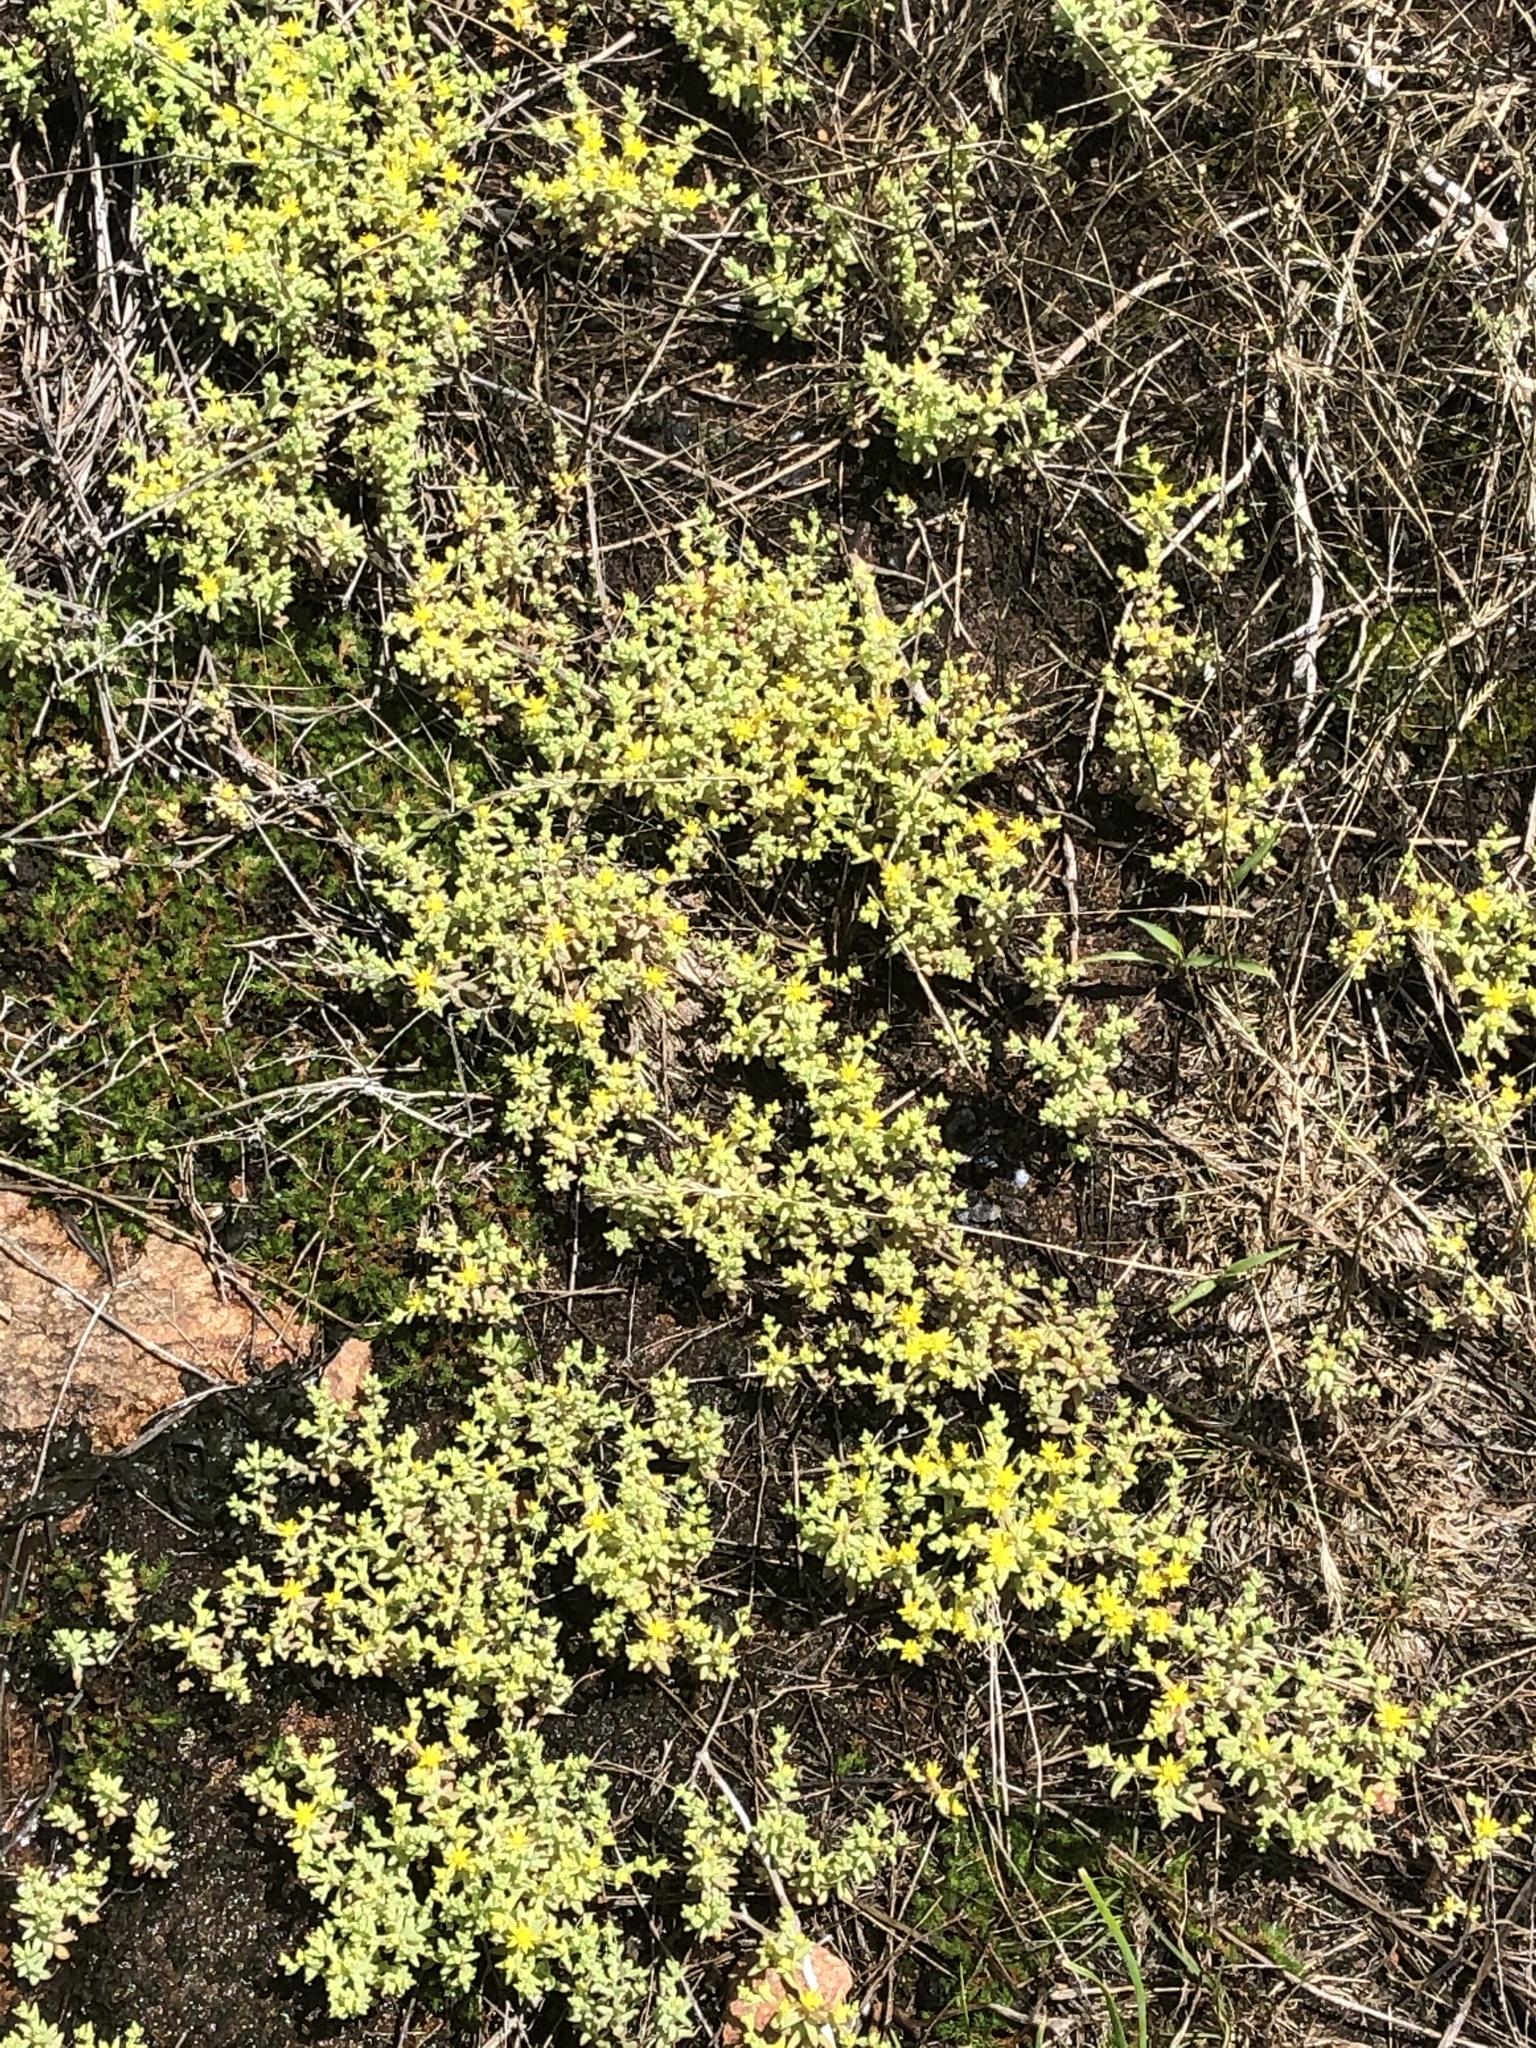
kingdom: Plantae
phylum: Tracheophyta
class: Magnoliopsida
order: Saxifragales
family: Crassulaceae
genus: Sedum
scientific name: Sedum nuttallii
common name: Yellow stonecrop
